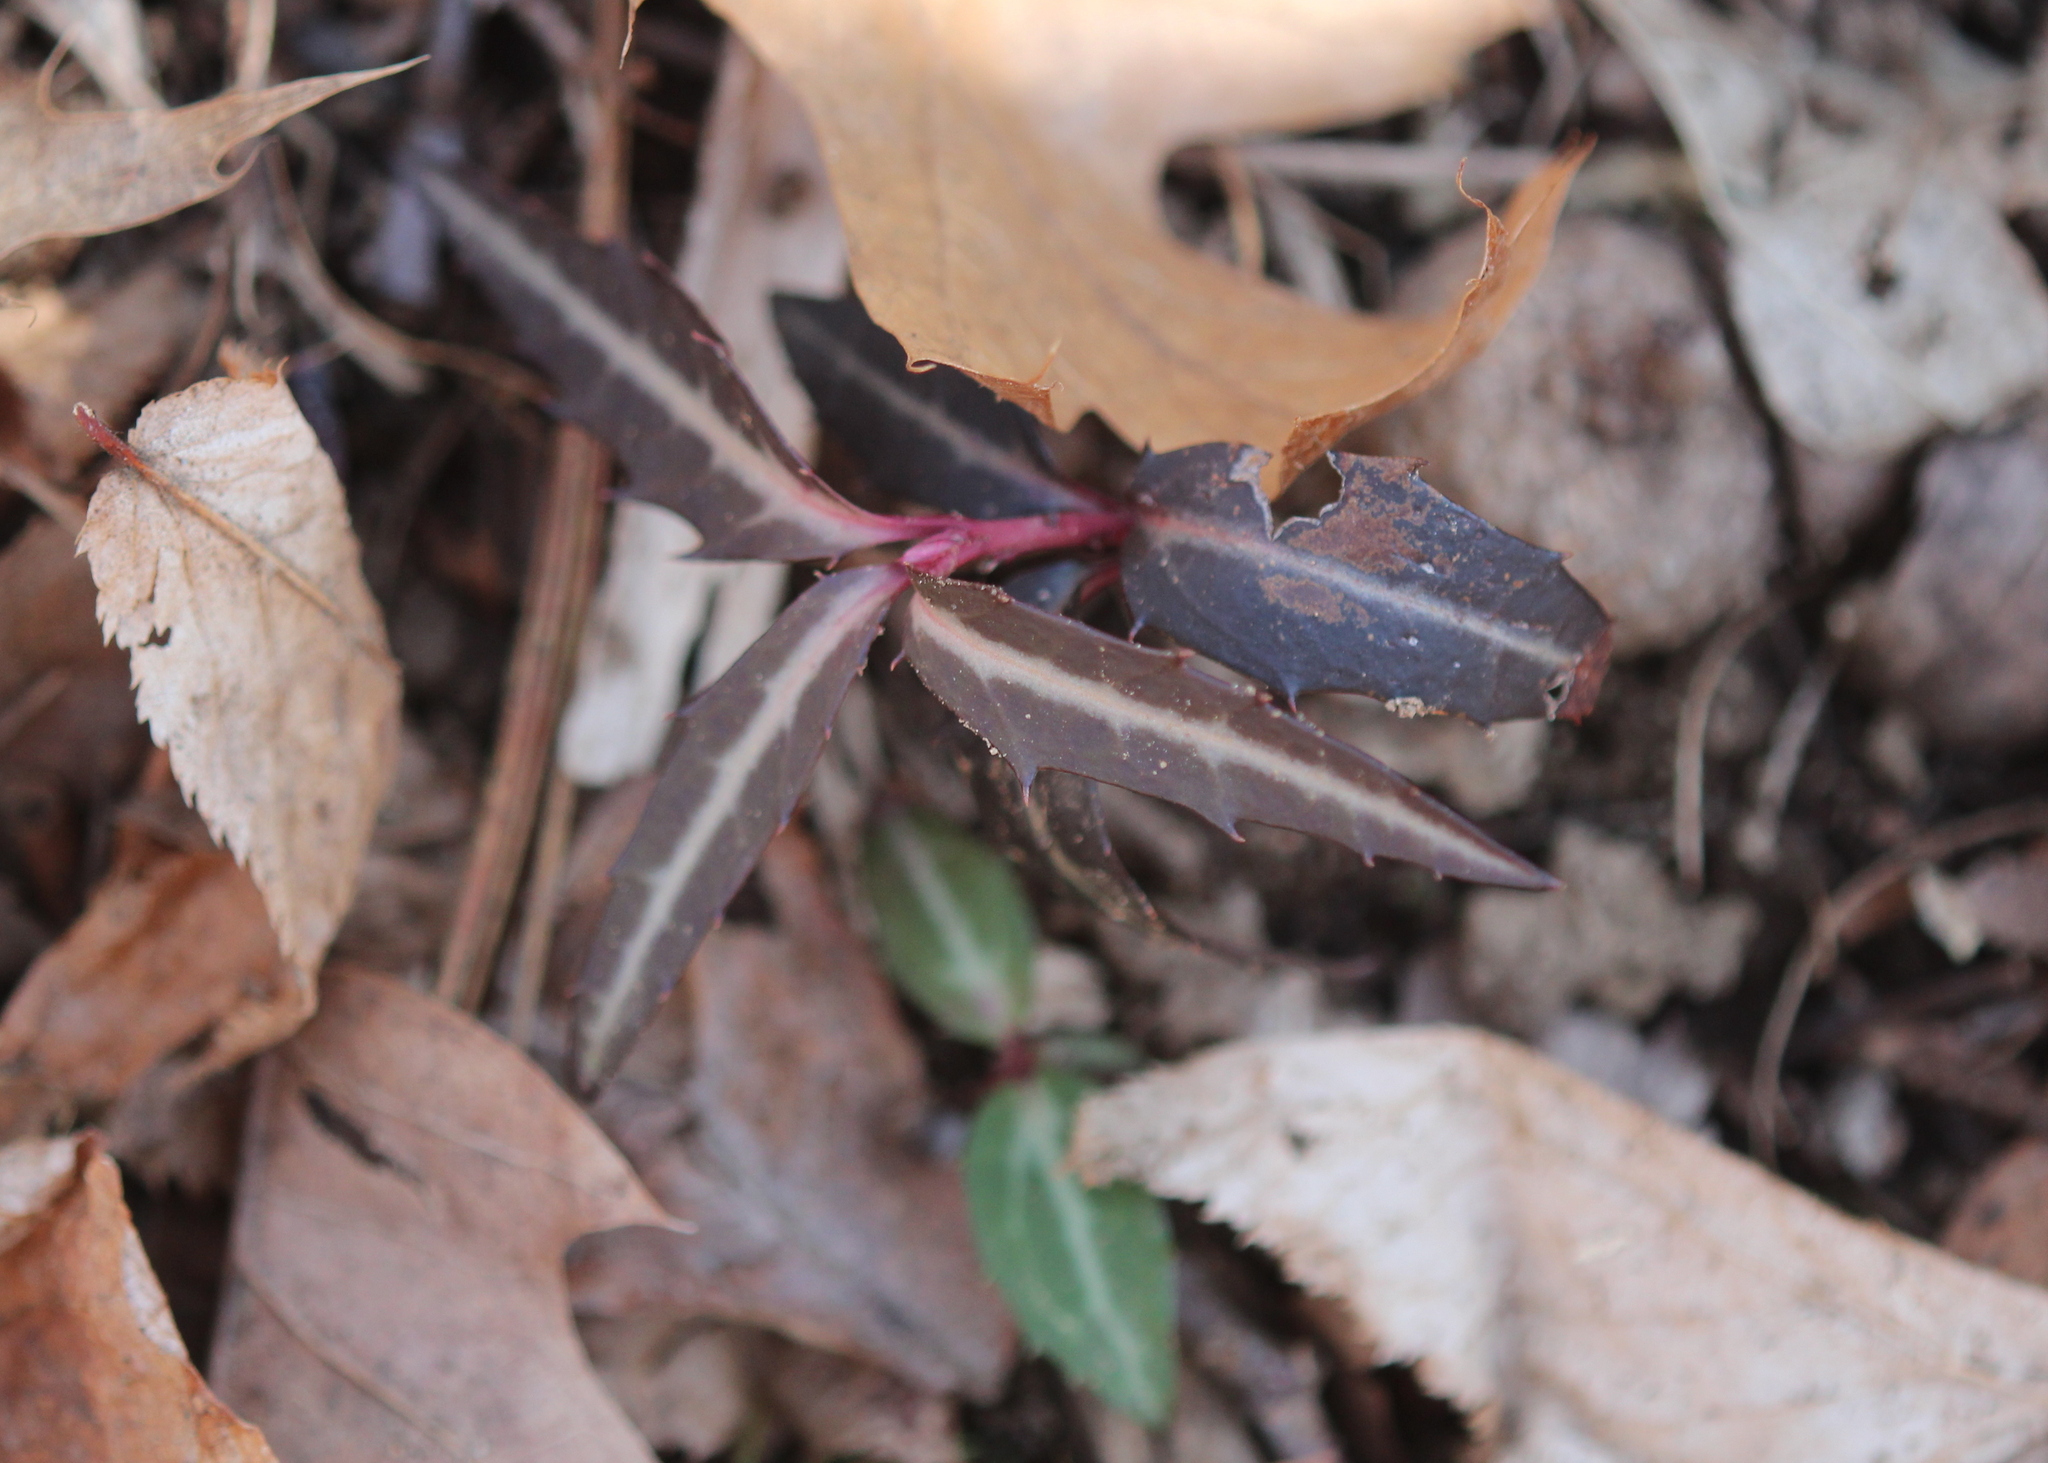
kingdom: Plantae
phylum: Tracheophyta
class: Magnoliopsida
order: Ericales
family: Ericaceae
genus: Chimaphila
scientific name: Chimaphila maculata
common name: Spotted pipsissewa
